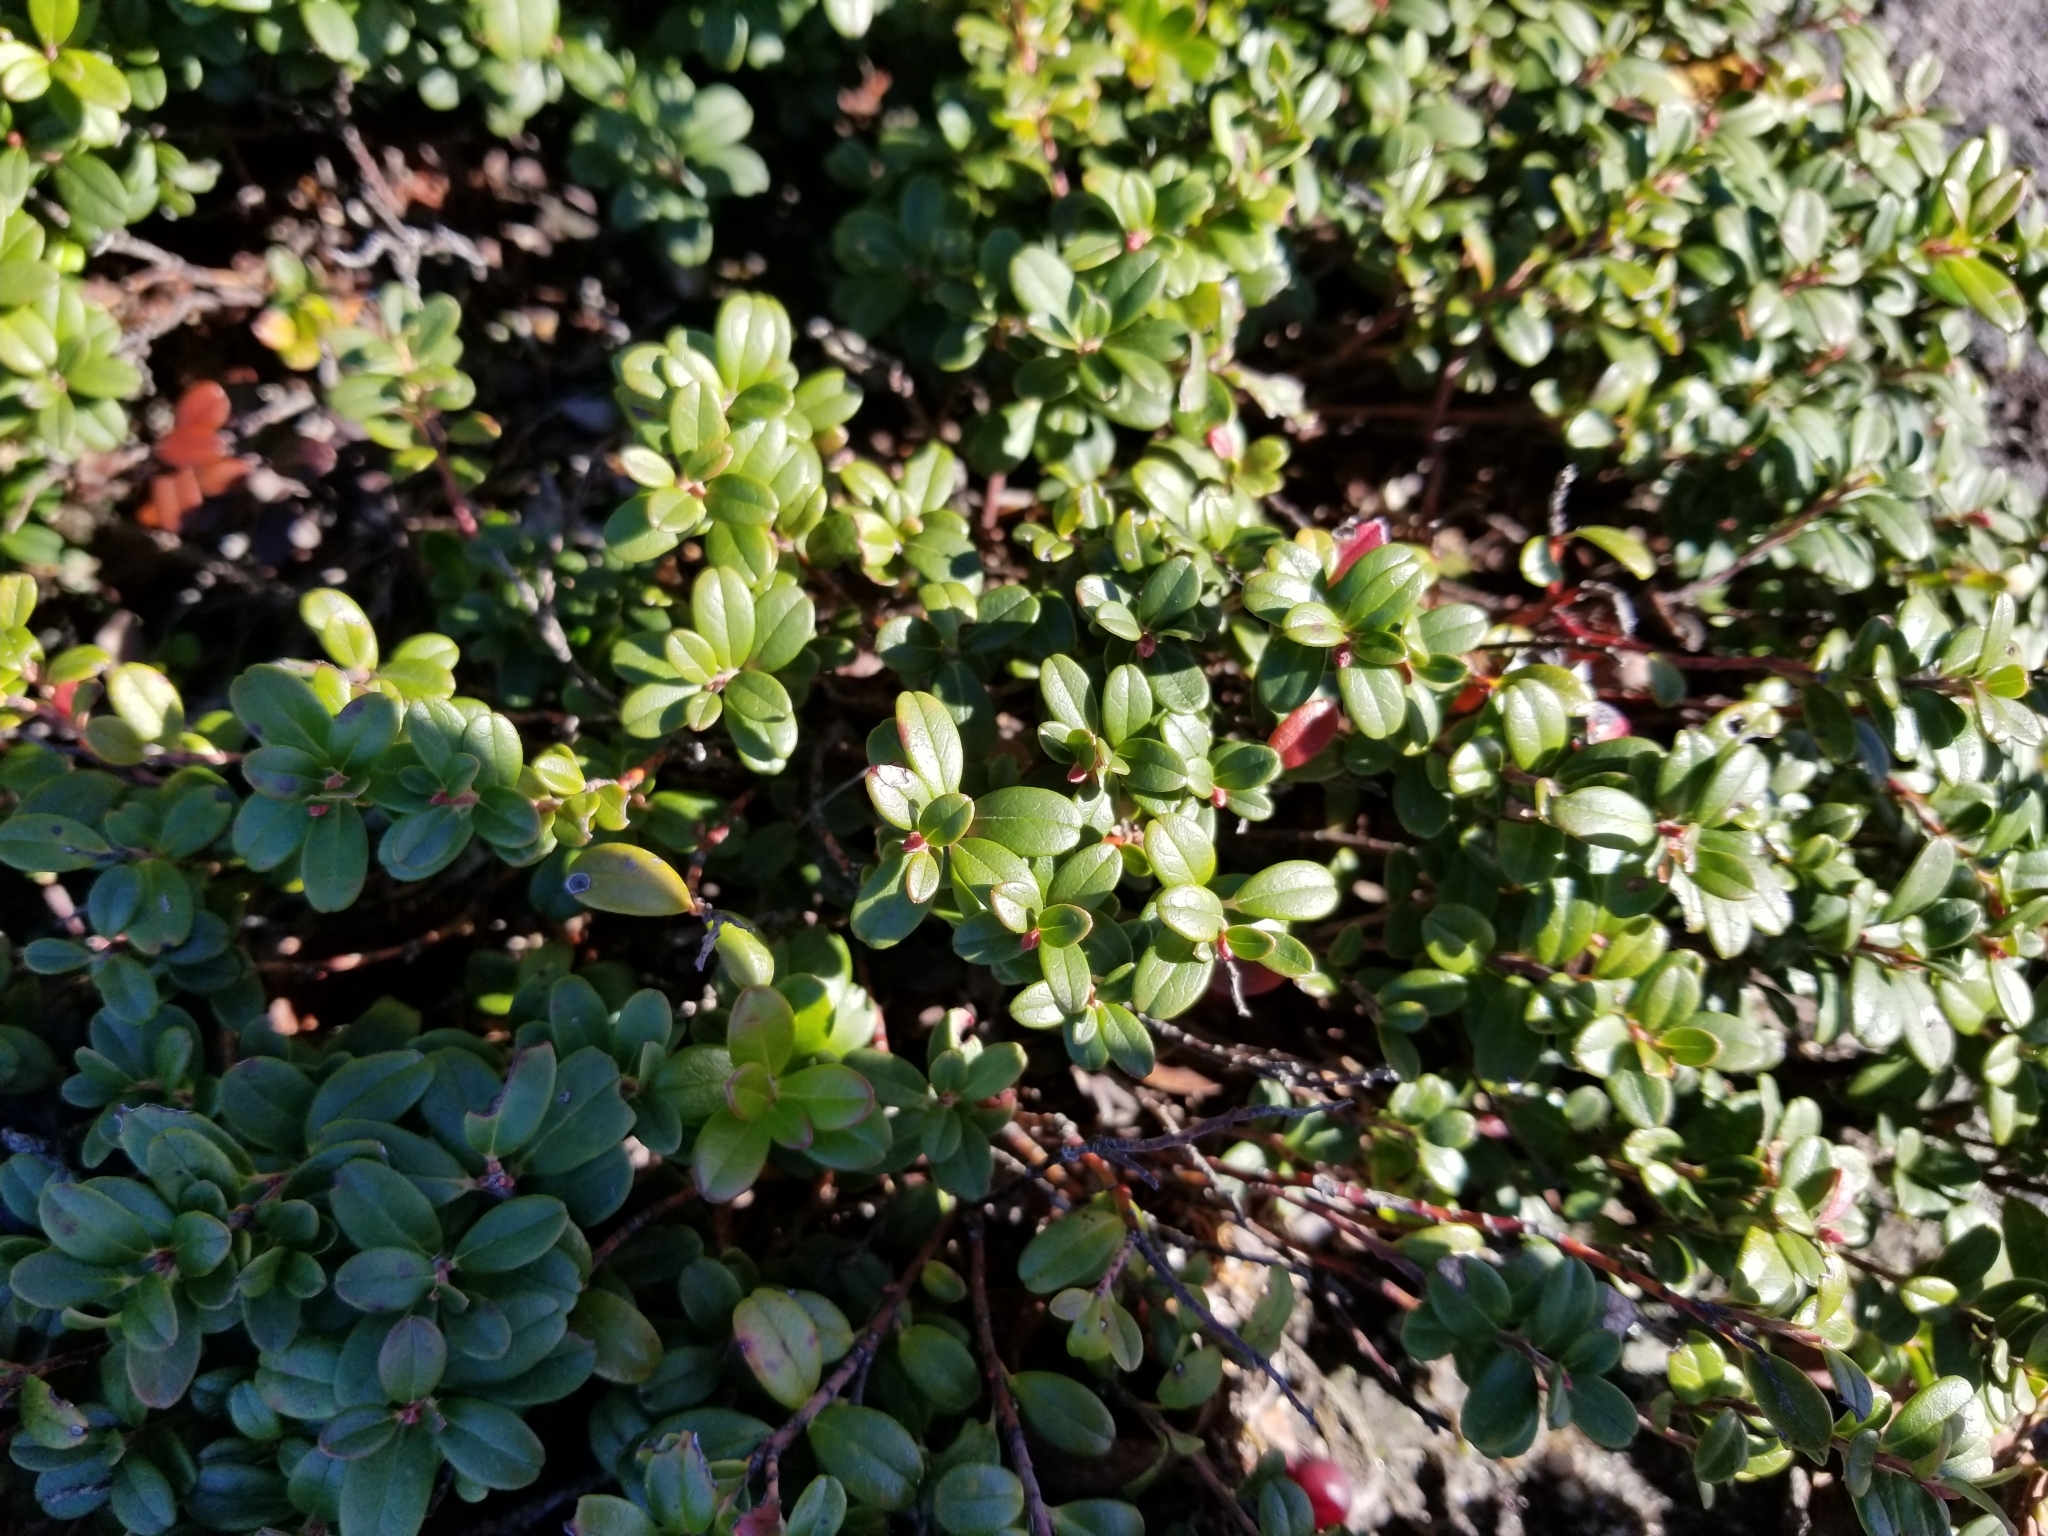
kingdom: Plantae
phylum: Tracheophyta
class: Magnoliopsida
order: Ericales
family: Ericaceae
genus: Vaccinium
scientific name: Vaccinium vitis-idaea
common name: Cowberry
